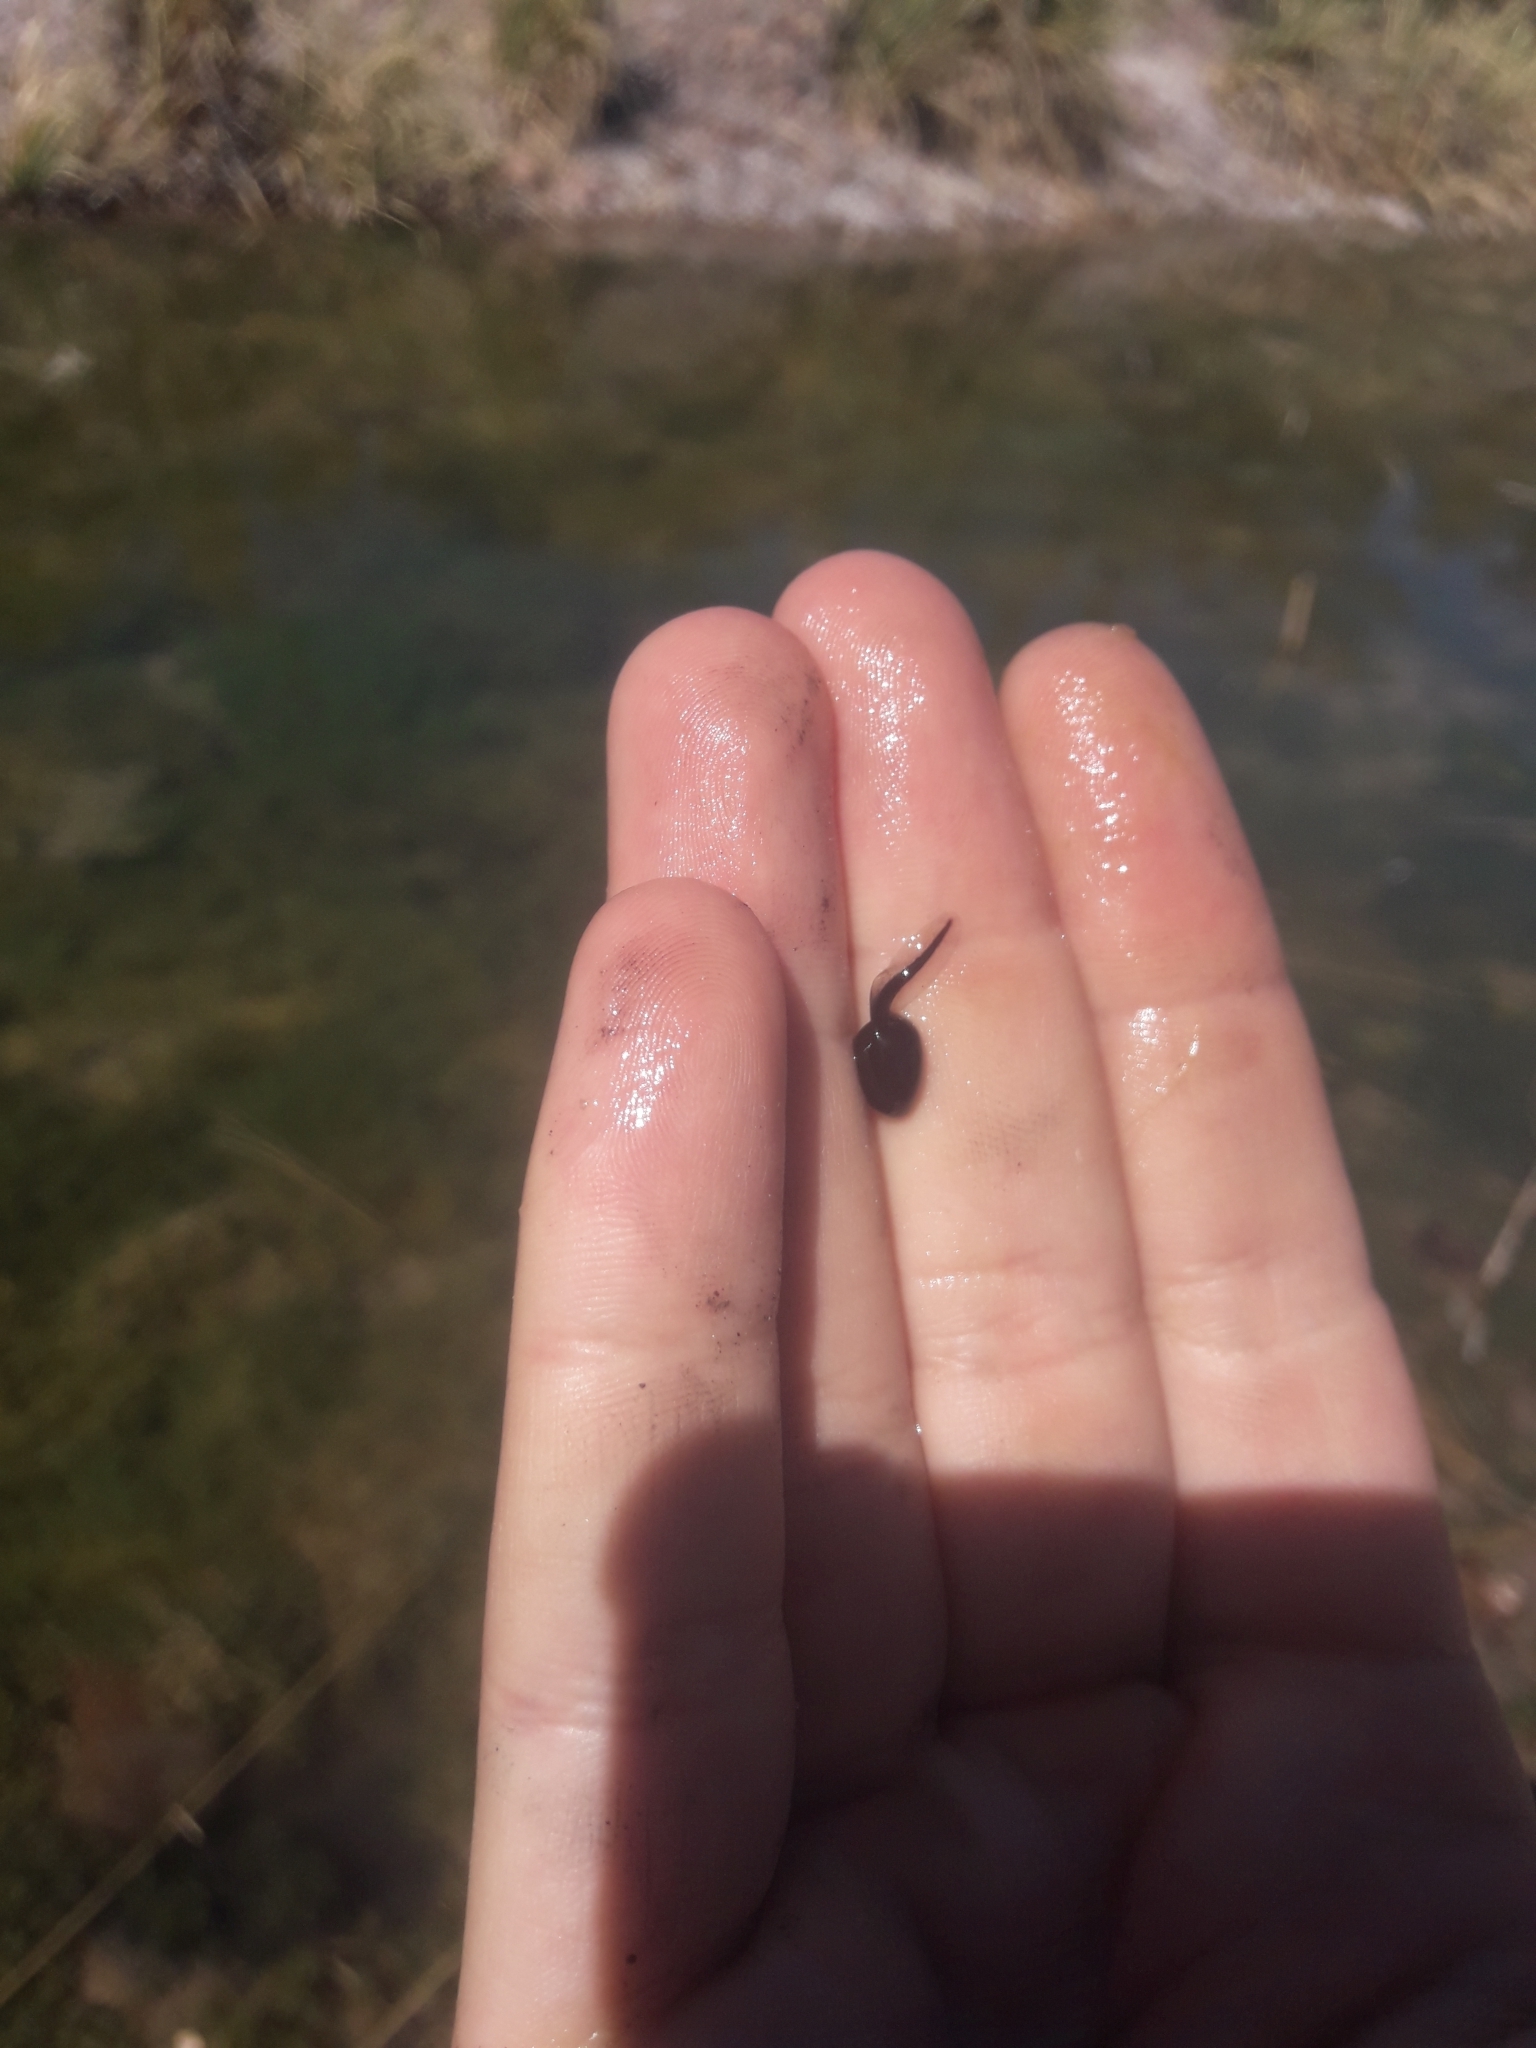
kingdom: Animalia
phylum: Chordata
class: Amphibia
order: Anura
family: Bufonidae
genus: Rhinella
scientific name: Rhinella arenarum
